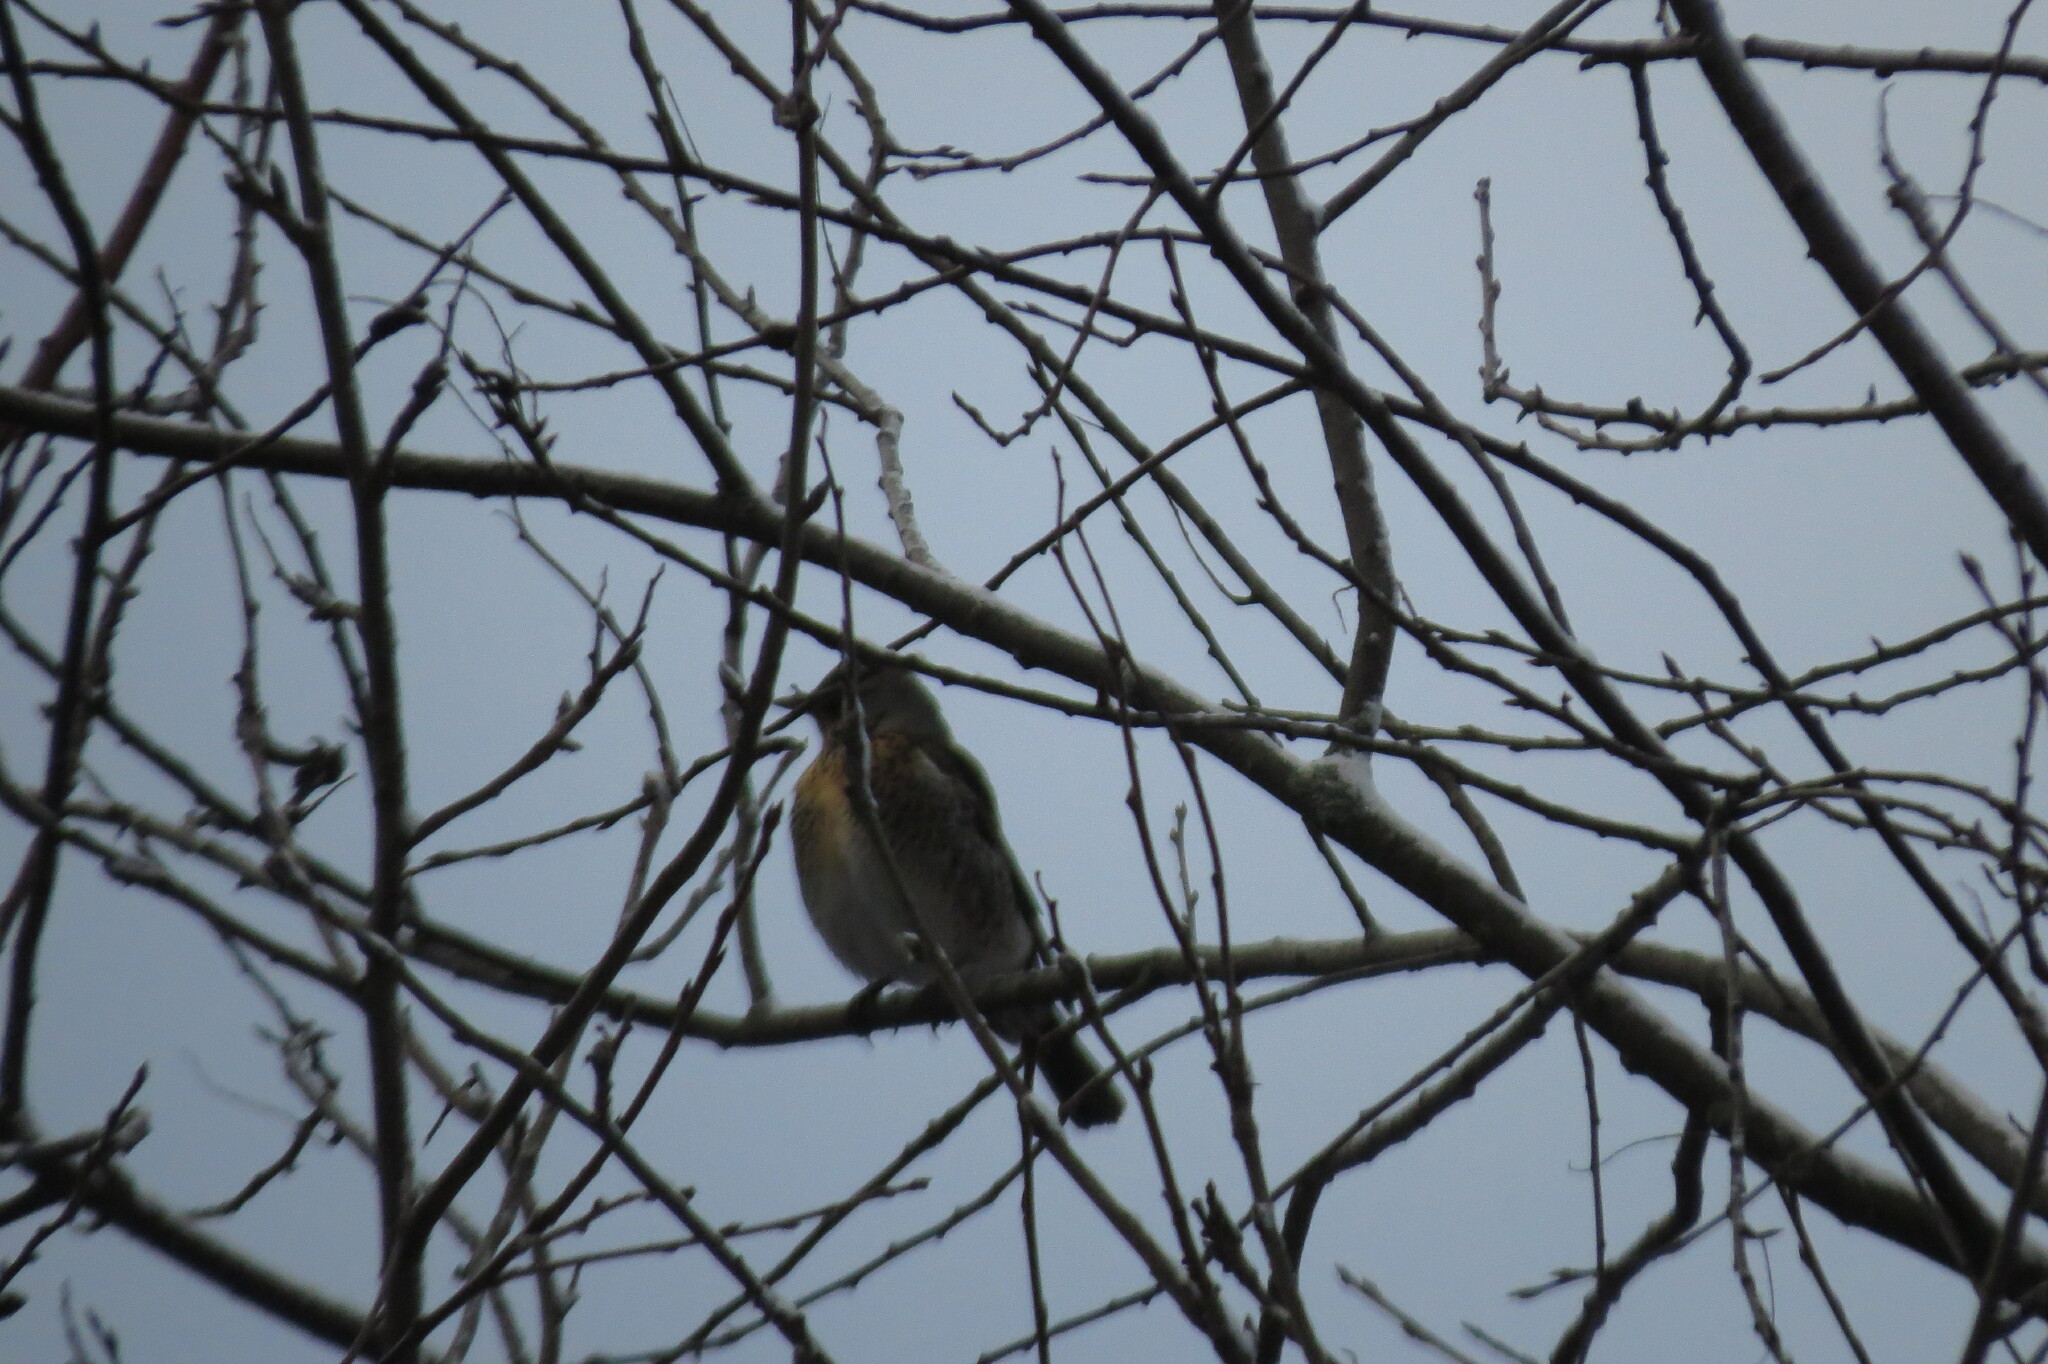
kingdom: Animalia
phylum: Chordata
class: Aves
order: Passeriformes
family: Turdidae
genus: Turdus
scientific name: Turdus pilaris
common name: Fieldfare
